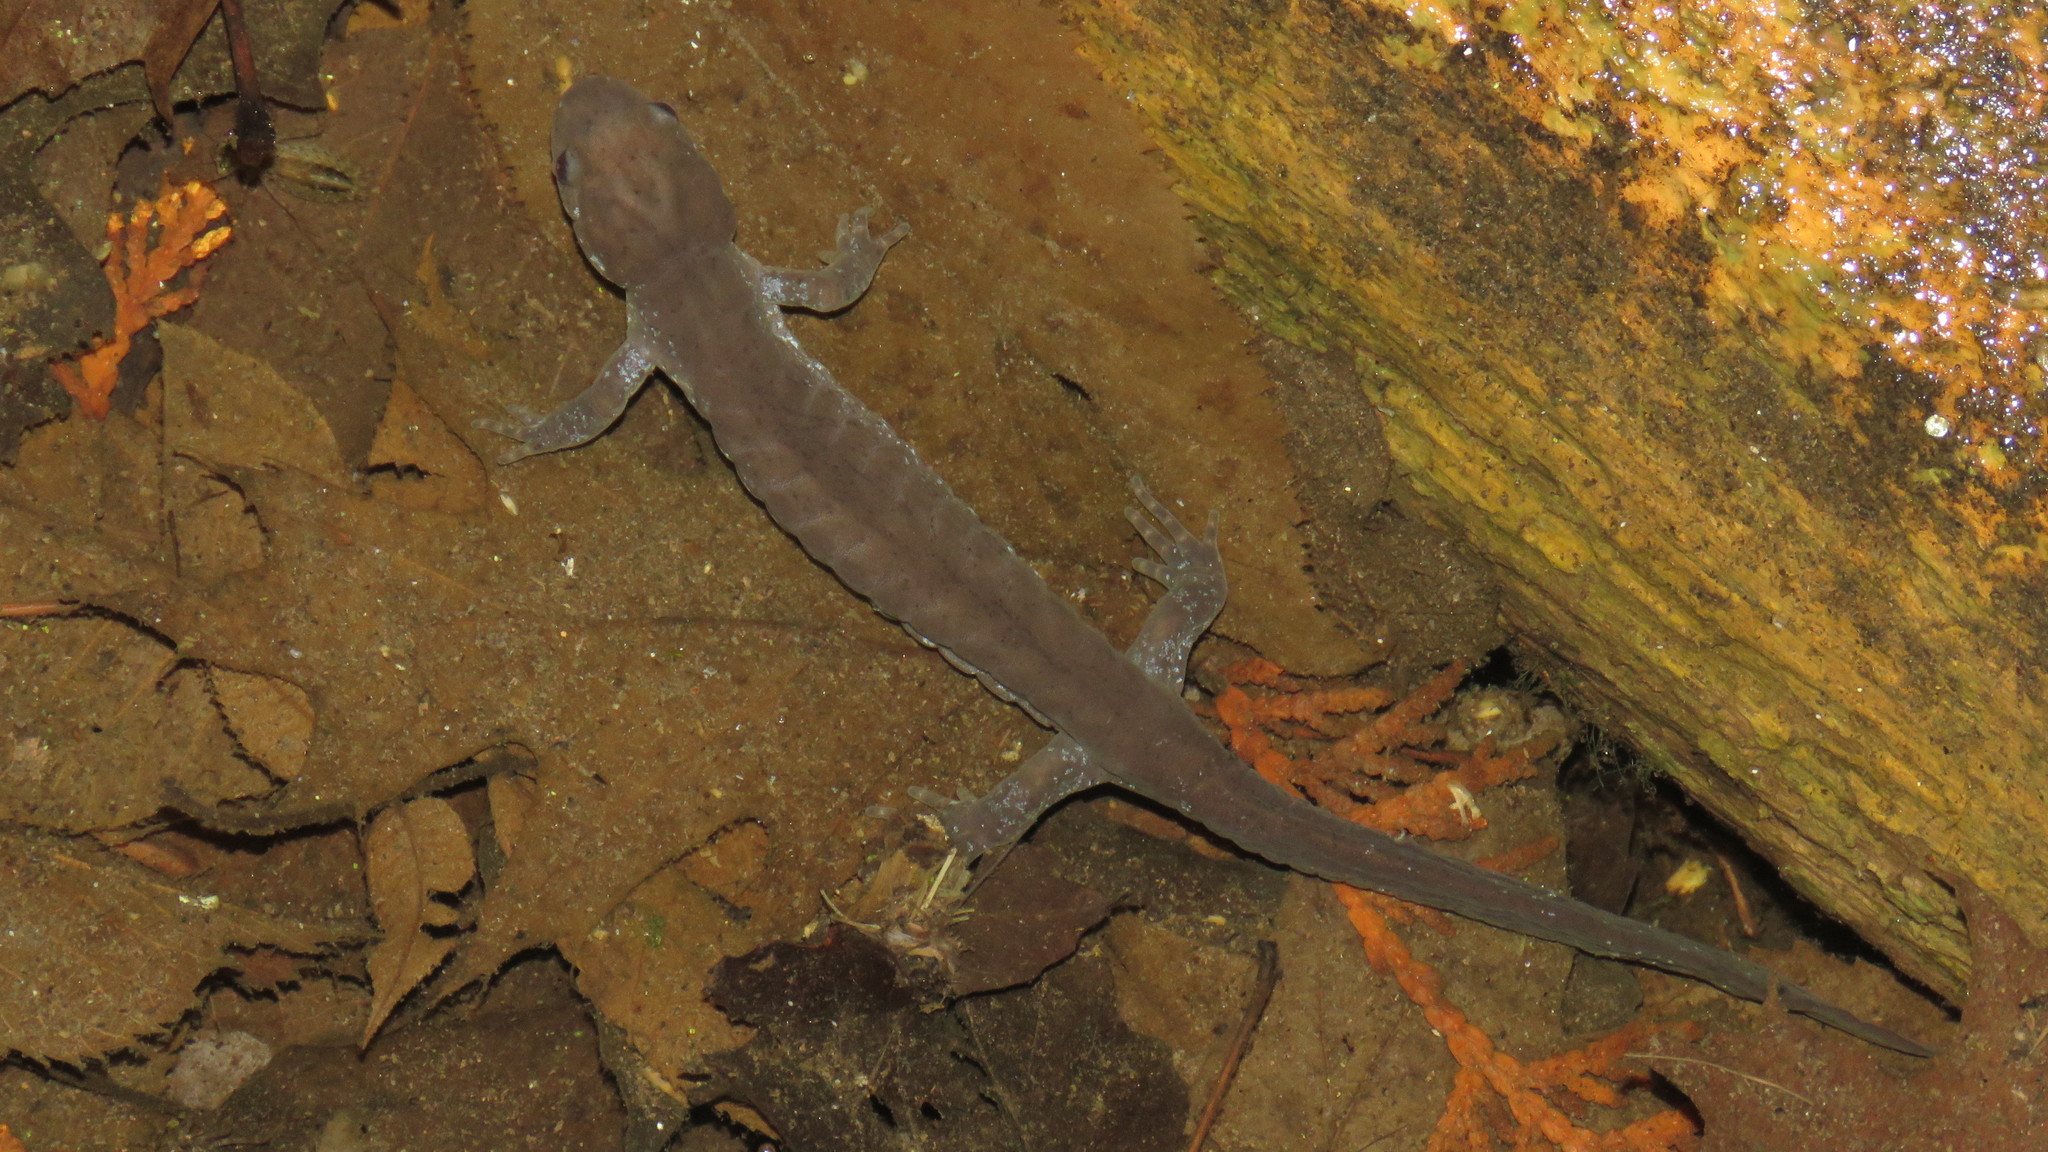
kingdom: Animalia
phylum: Chordata
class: Amphibia
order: Caudata
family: Ambystomatidae
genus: Ambystoma
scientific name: Ambystoma unisexual
